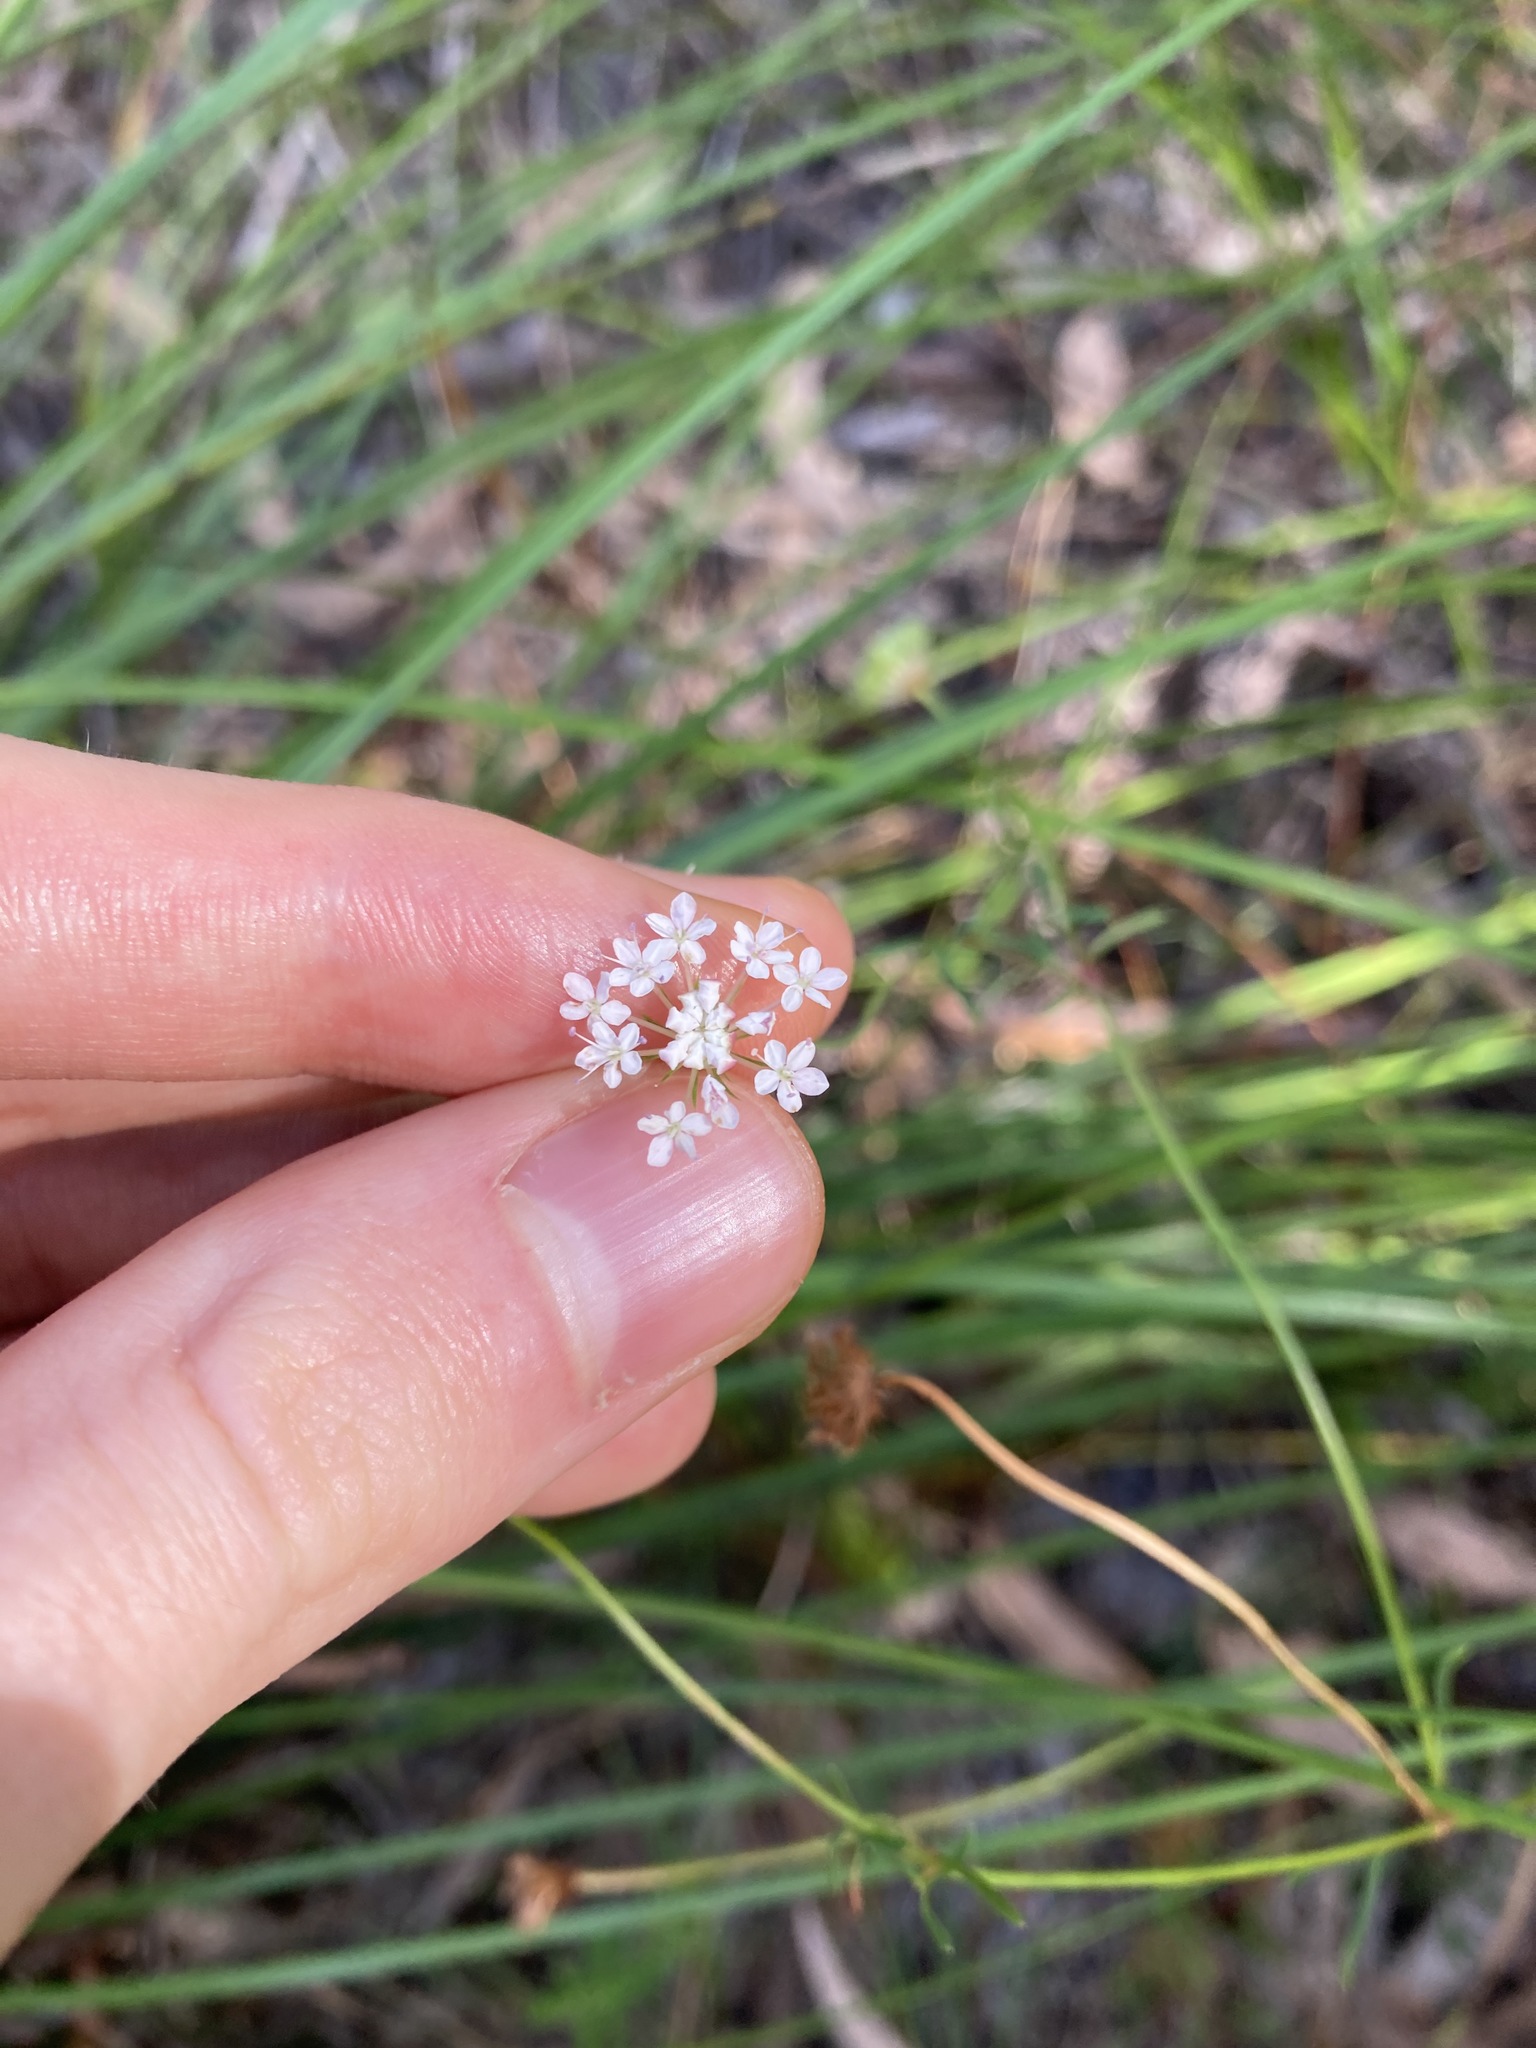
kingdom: Plantae
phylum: Tracheophyta
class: Magnoliopsida
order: Apiales
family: Araliaceae
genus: Trachymene
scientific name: Trachymene incisa
